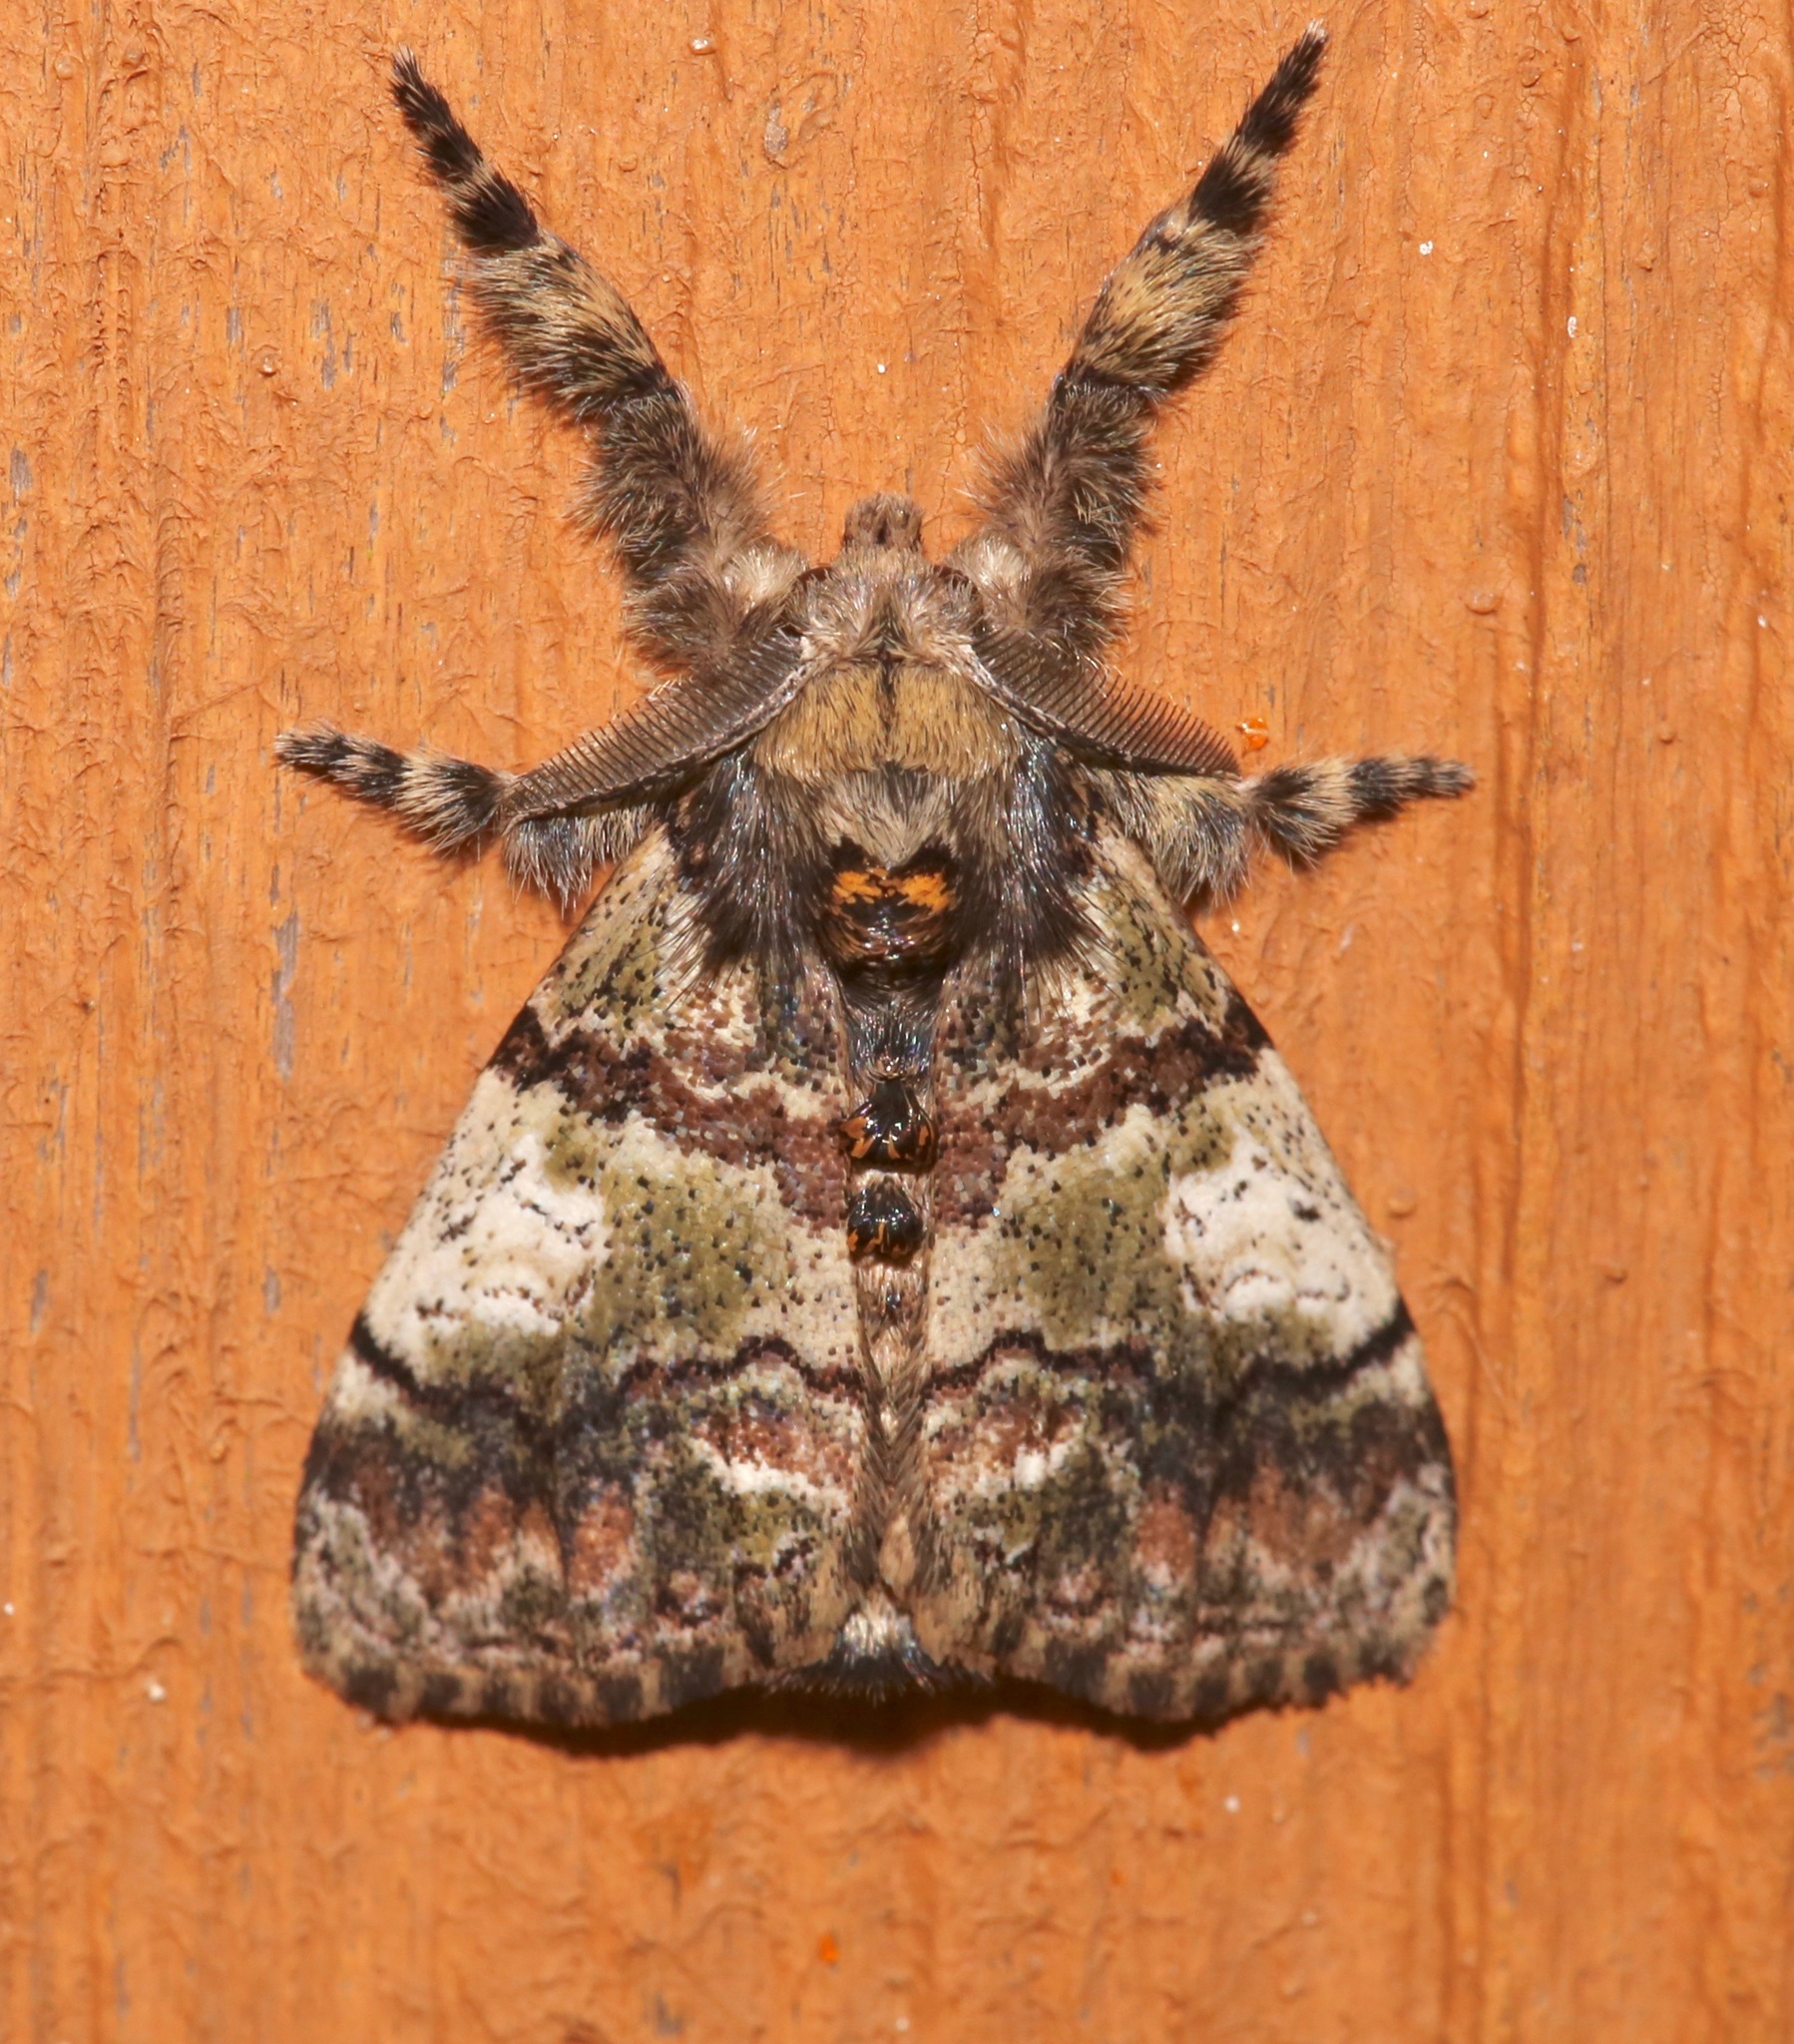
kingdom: Animalia
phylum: Arthropoda
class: Insecta
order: Lepidoptera
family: Erebidae
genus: Dasychira
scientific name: Dasychira meridionalis
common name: Southern tussock moth
